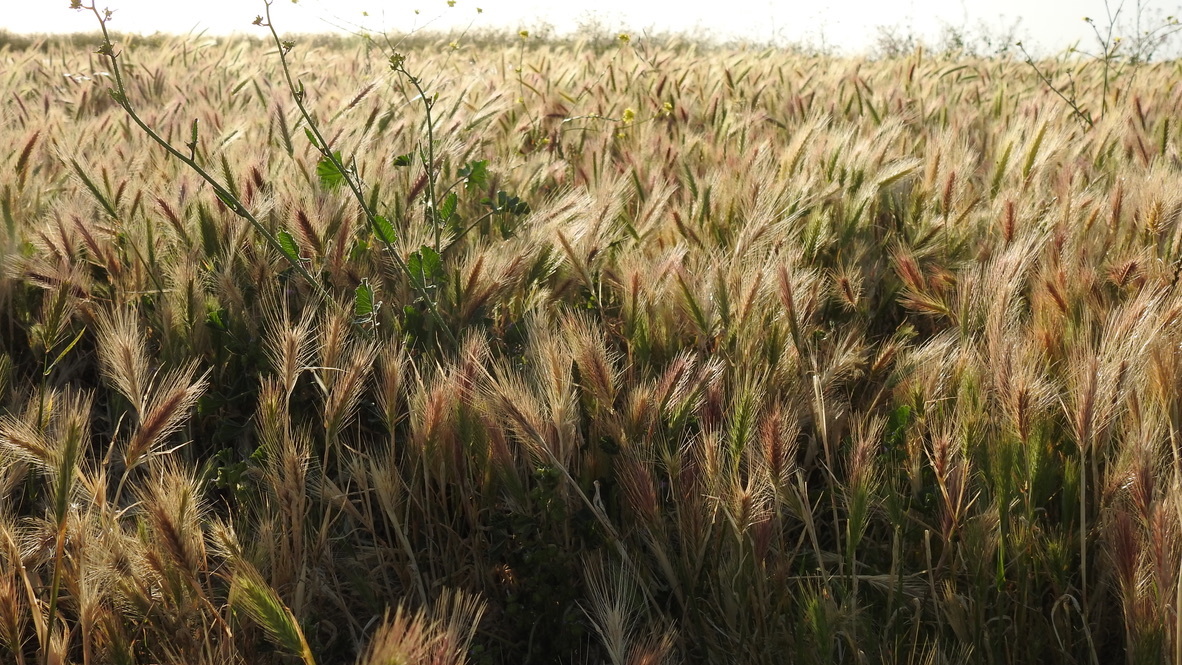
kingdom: Plantae
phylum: Tracheophyta
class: Liliopsida
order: Poales
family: Poaceae
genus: Hordeum
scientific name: Hordeum murinum
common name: Wall barley
